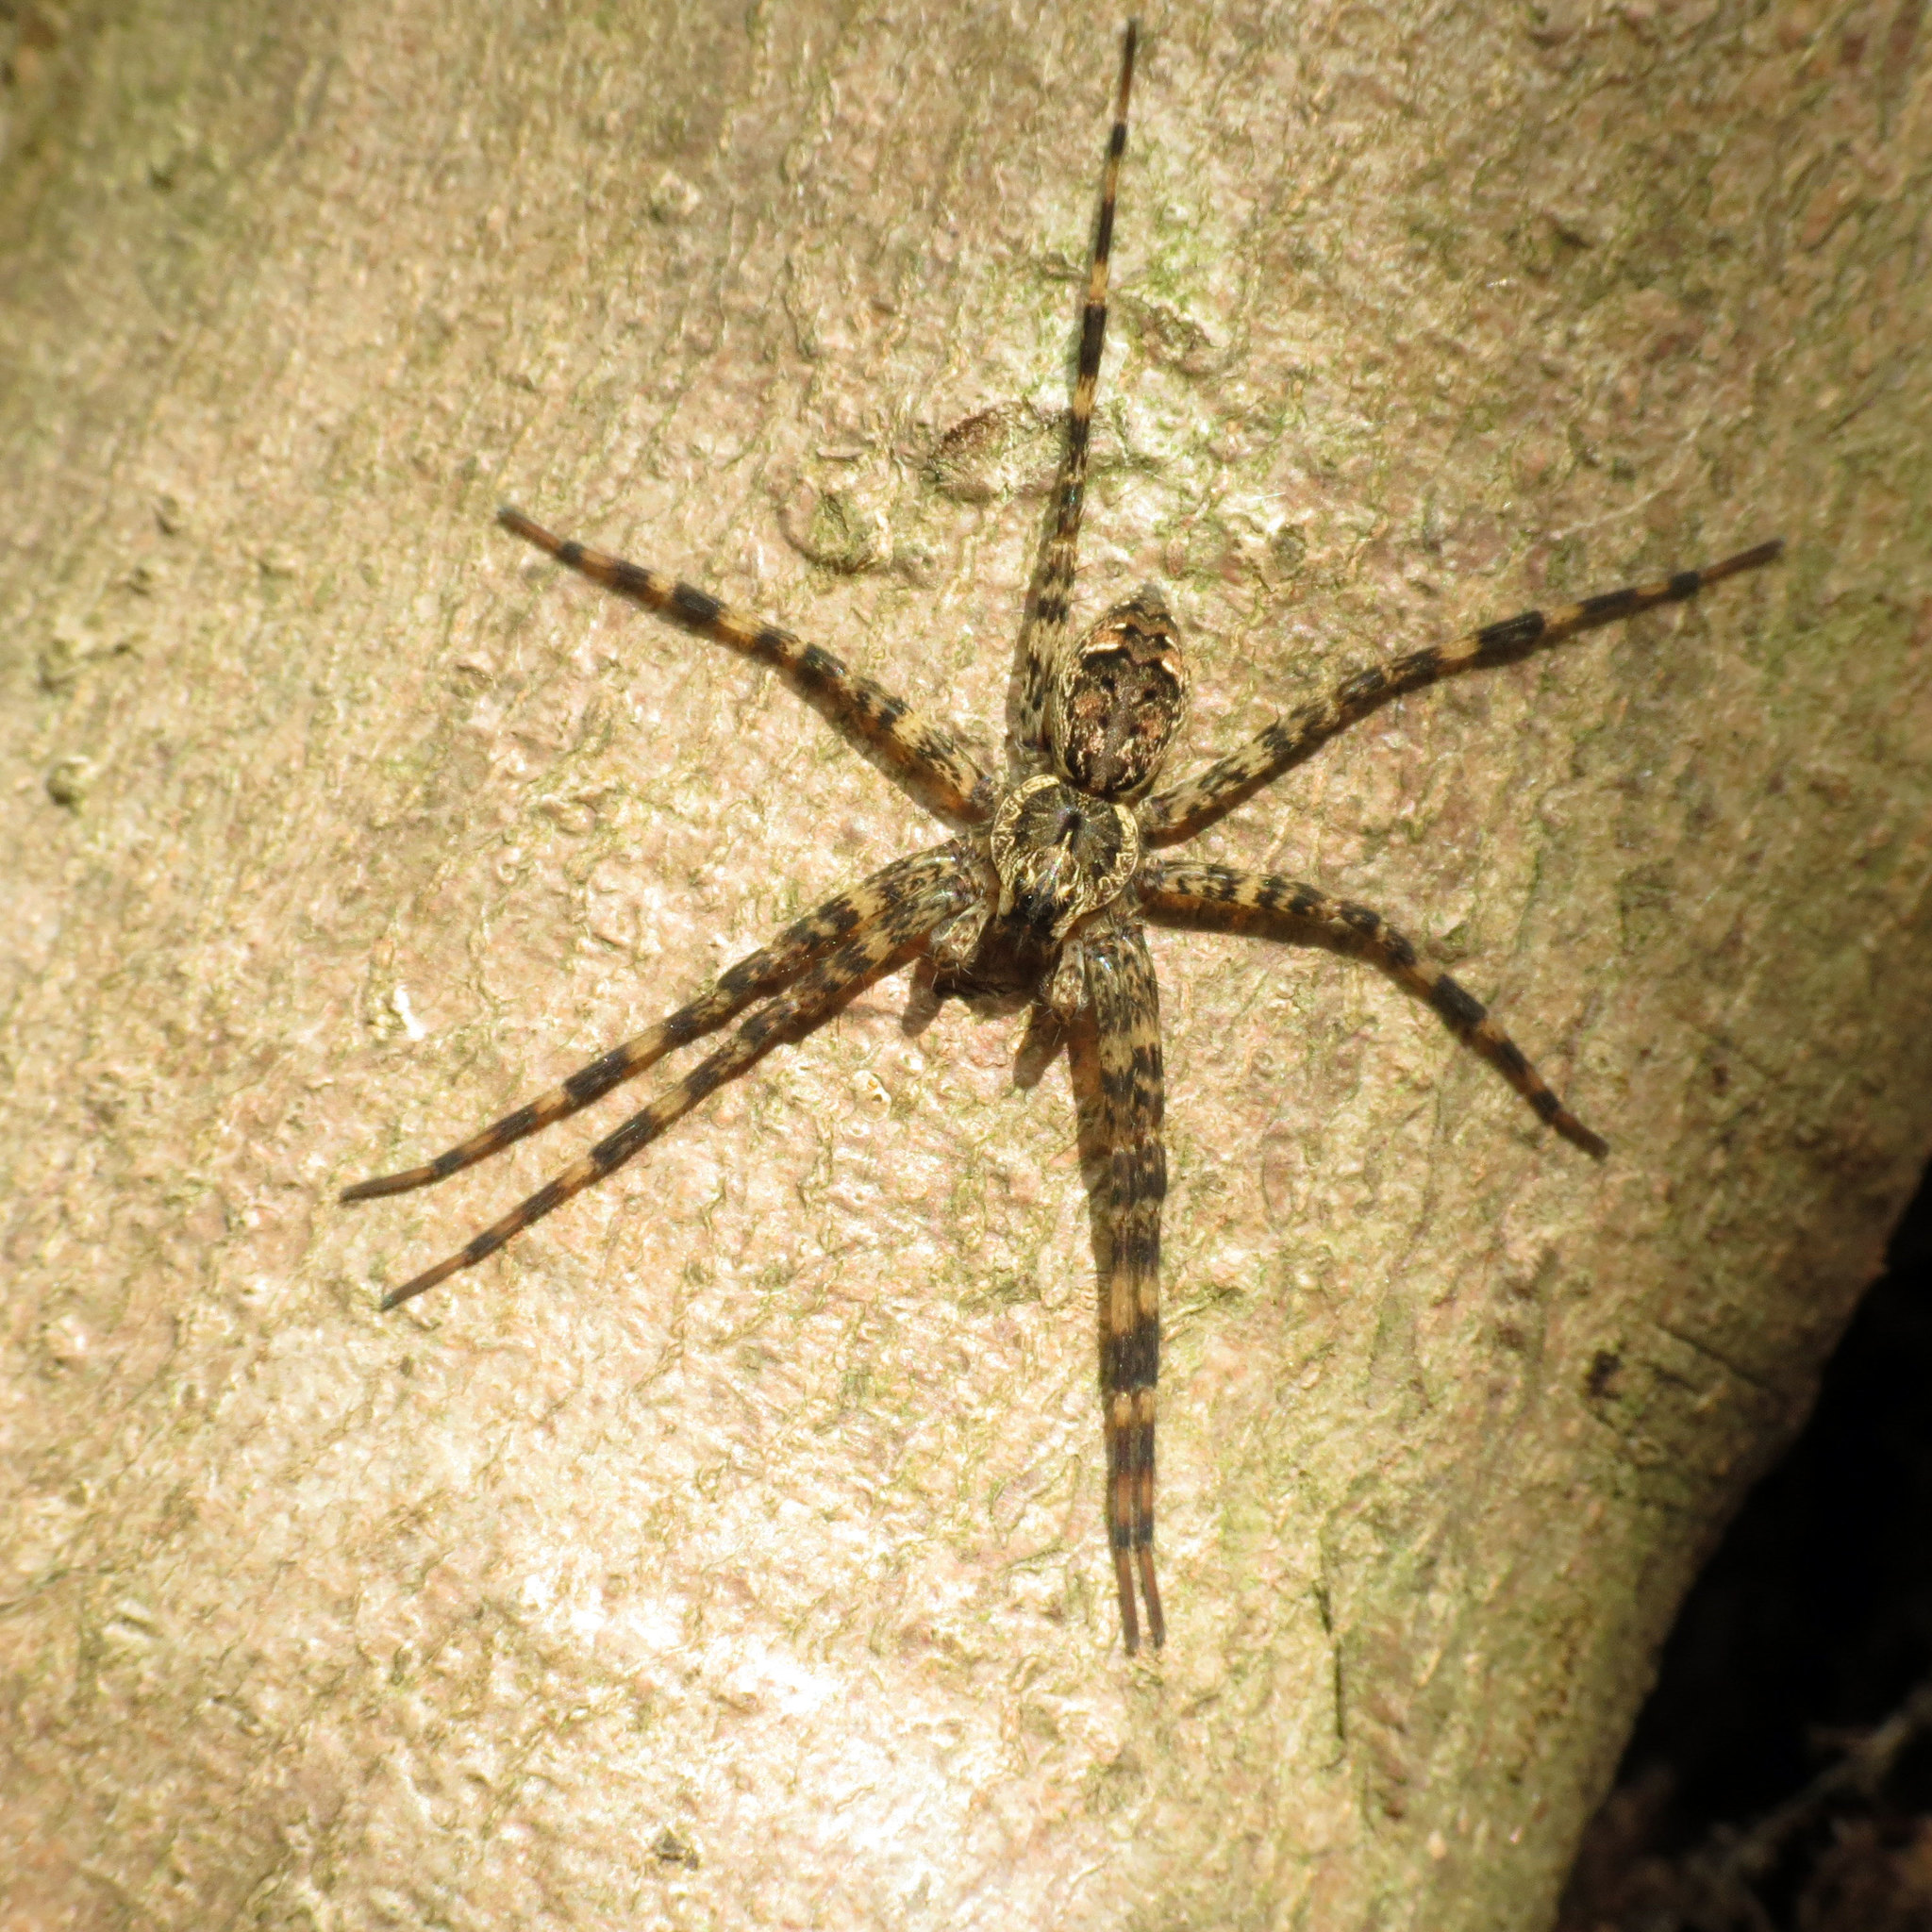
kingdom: Animalia
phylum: Arthropoda
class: Arachnida
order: Araneae
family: Pisauridae
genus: Dolomedes
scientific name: Dolomedes tenebrosus
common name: Dark fishing spider
